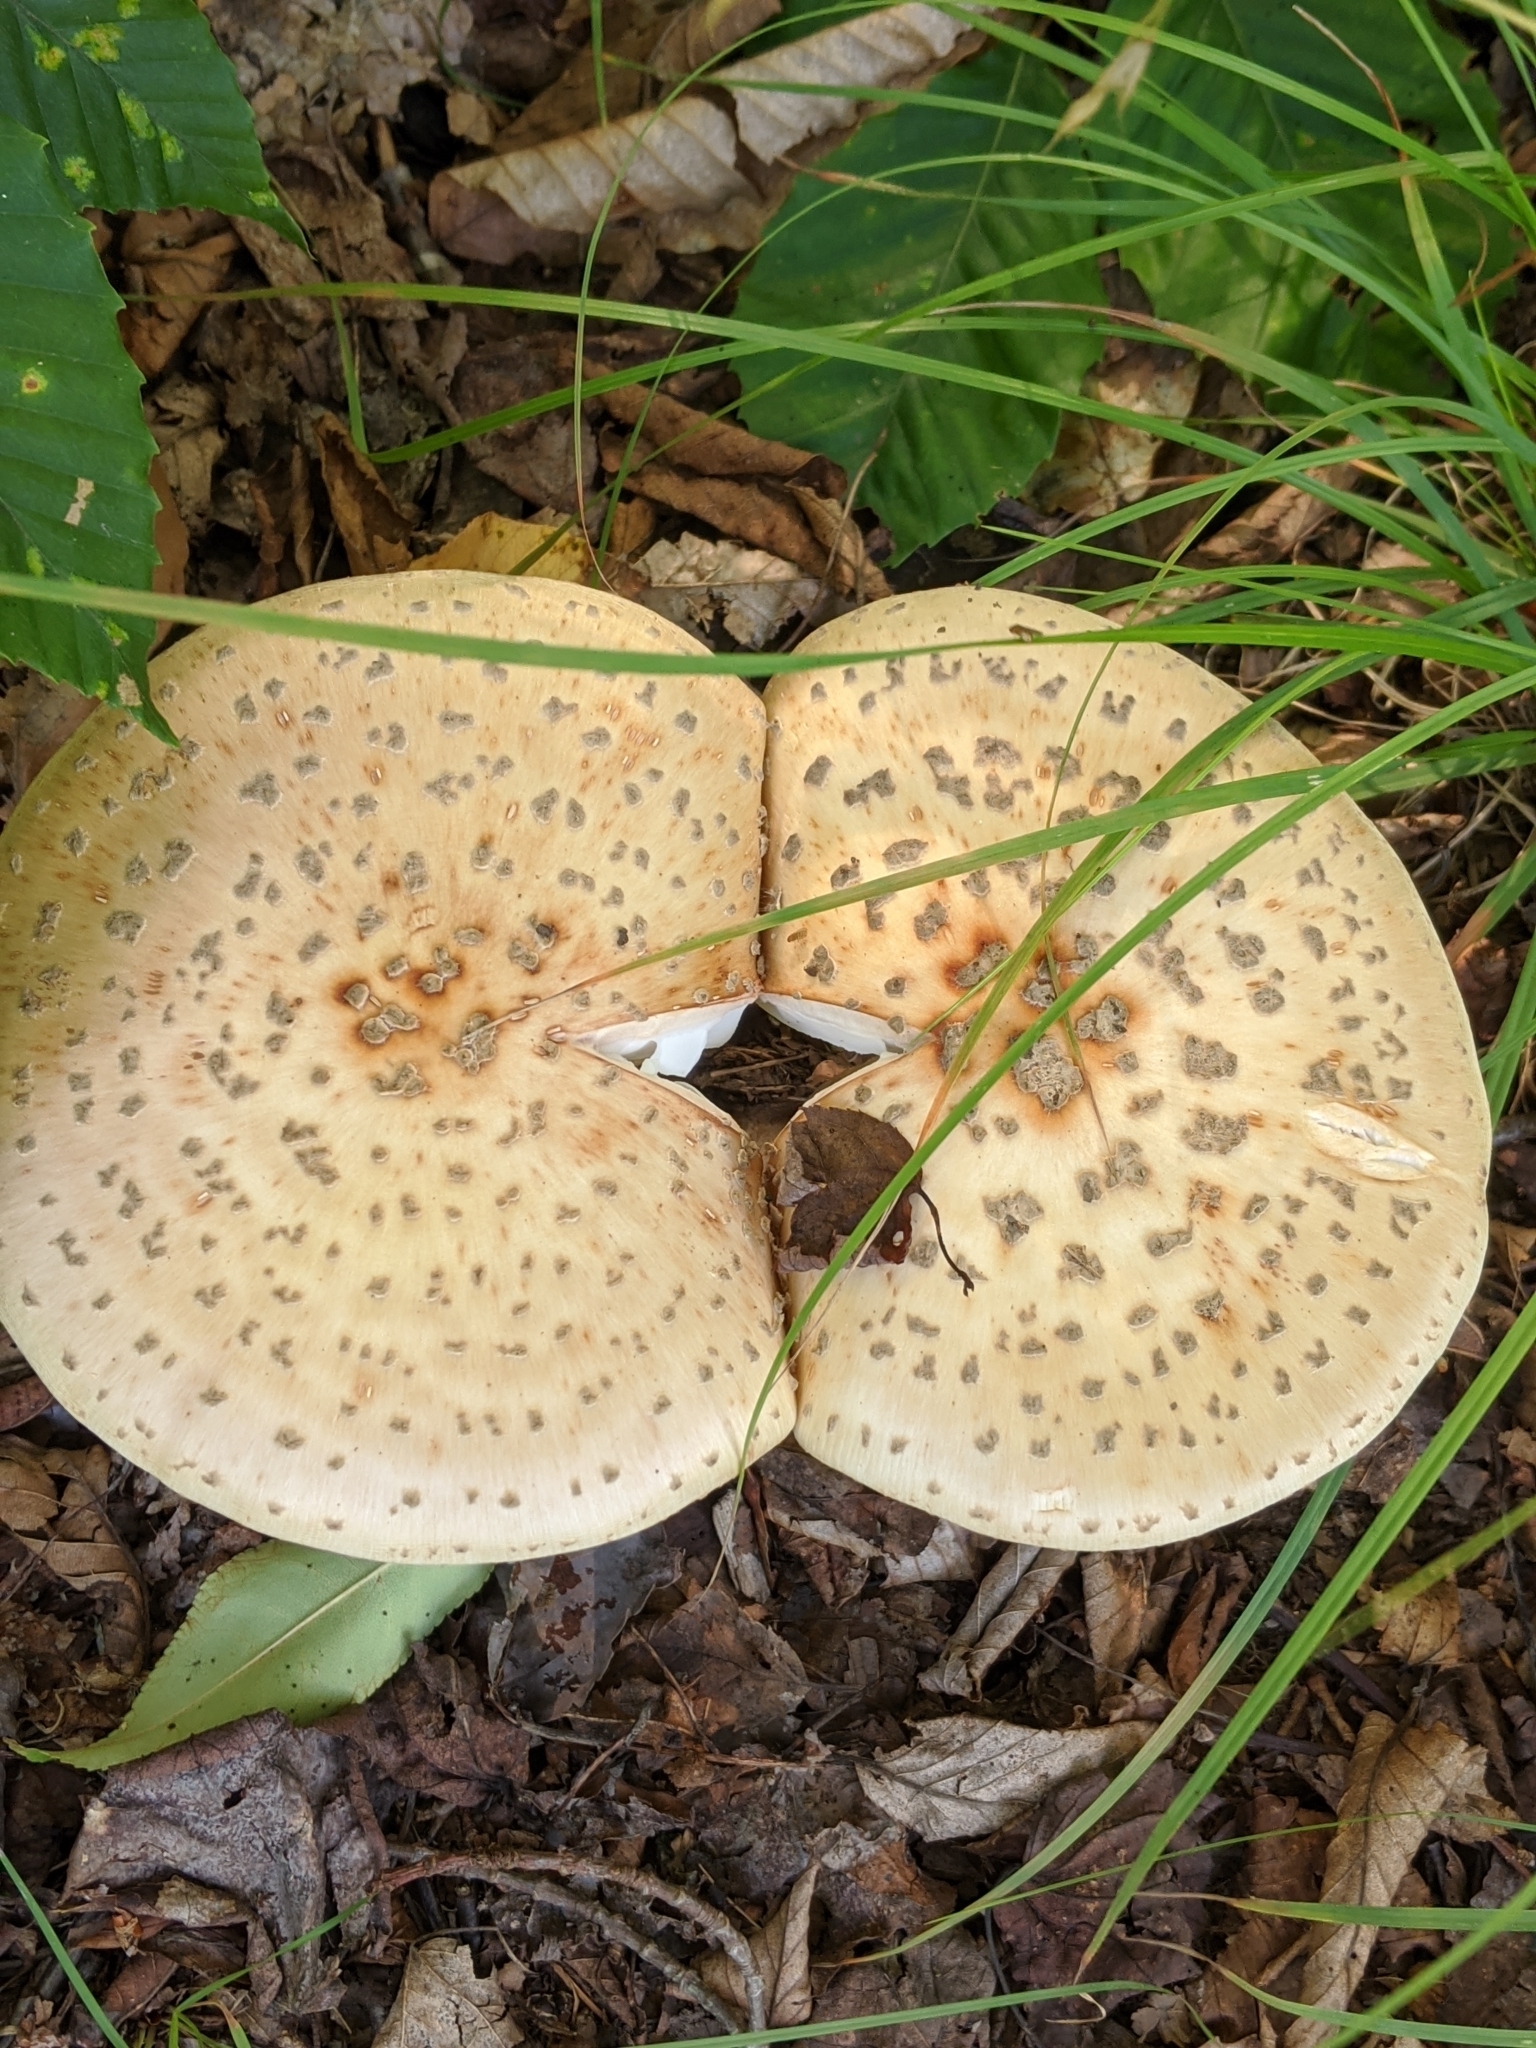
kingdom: Fungi
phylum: Basidiomycota
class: Agaricomycetes
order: Agaricales
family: Amanitaceae
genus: Amanita
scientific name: Amanita
